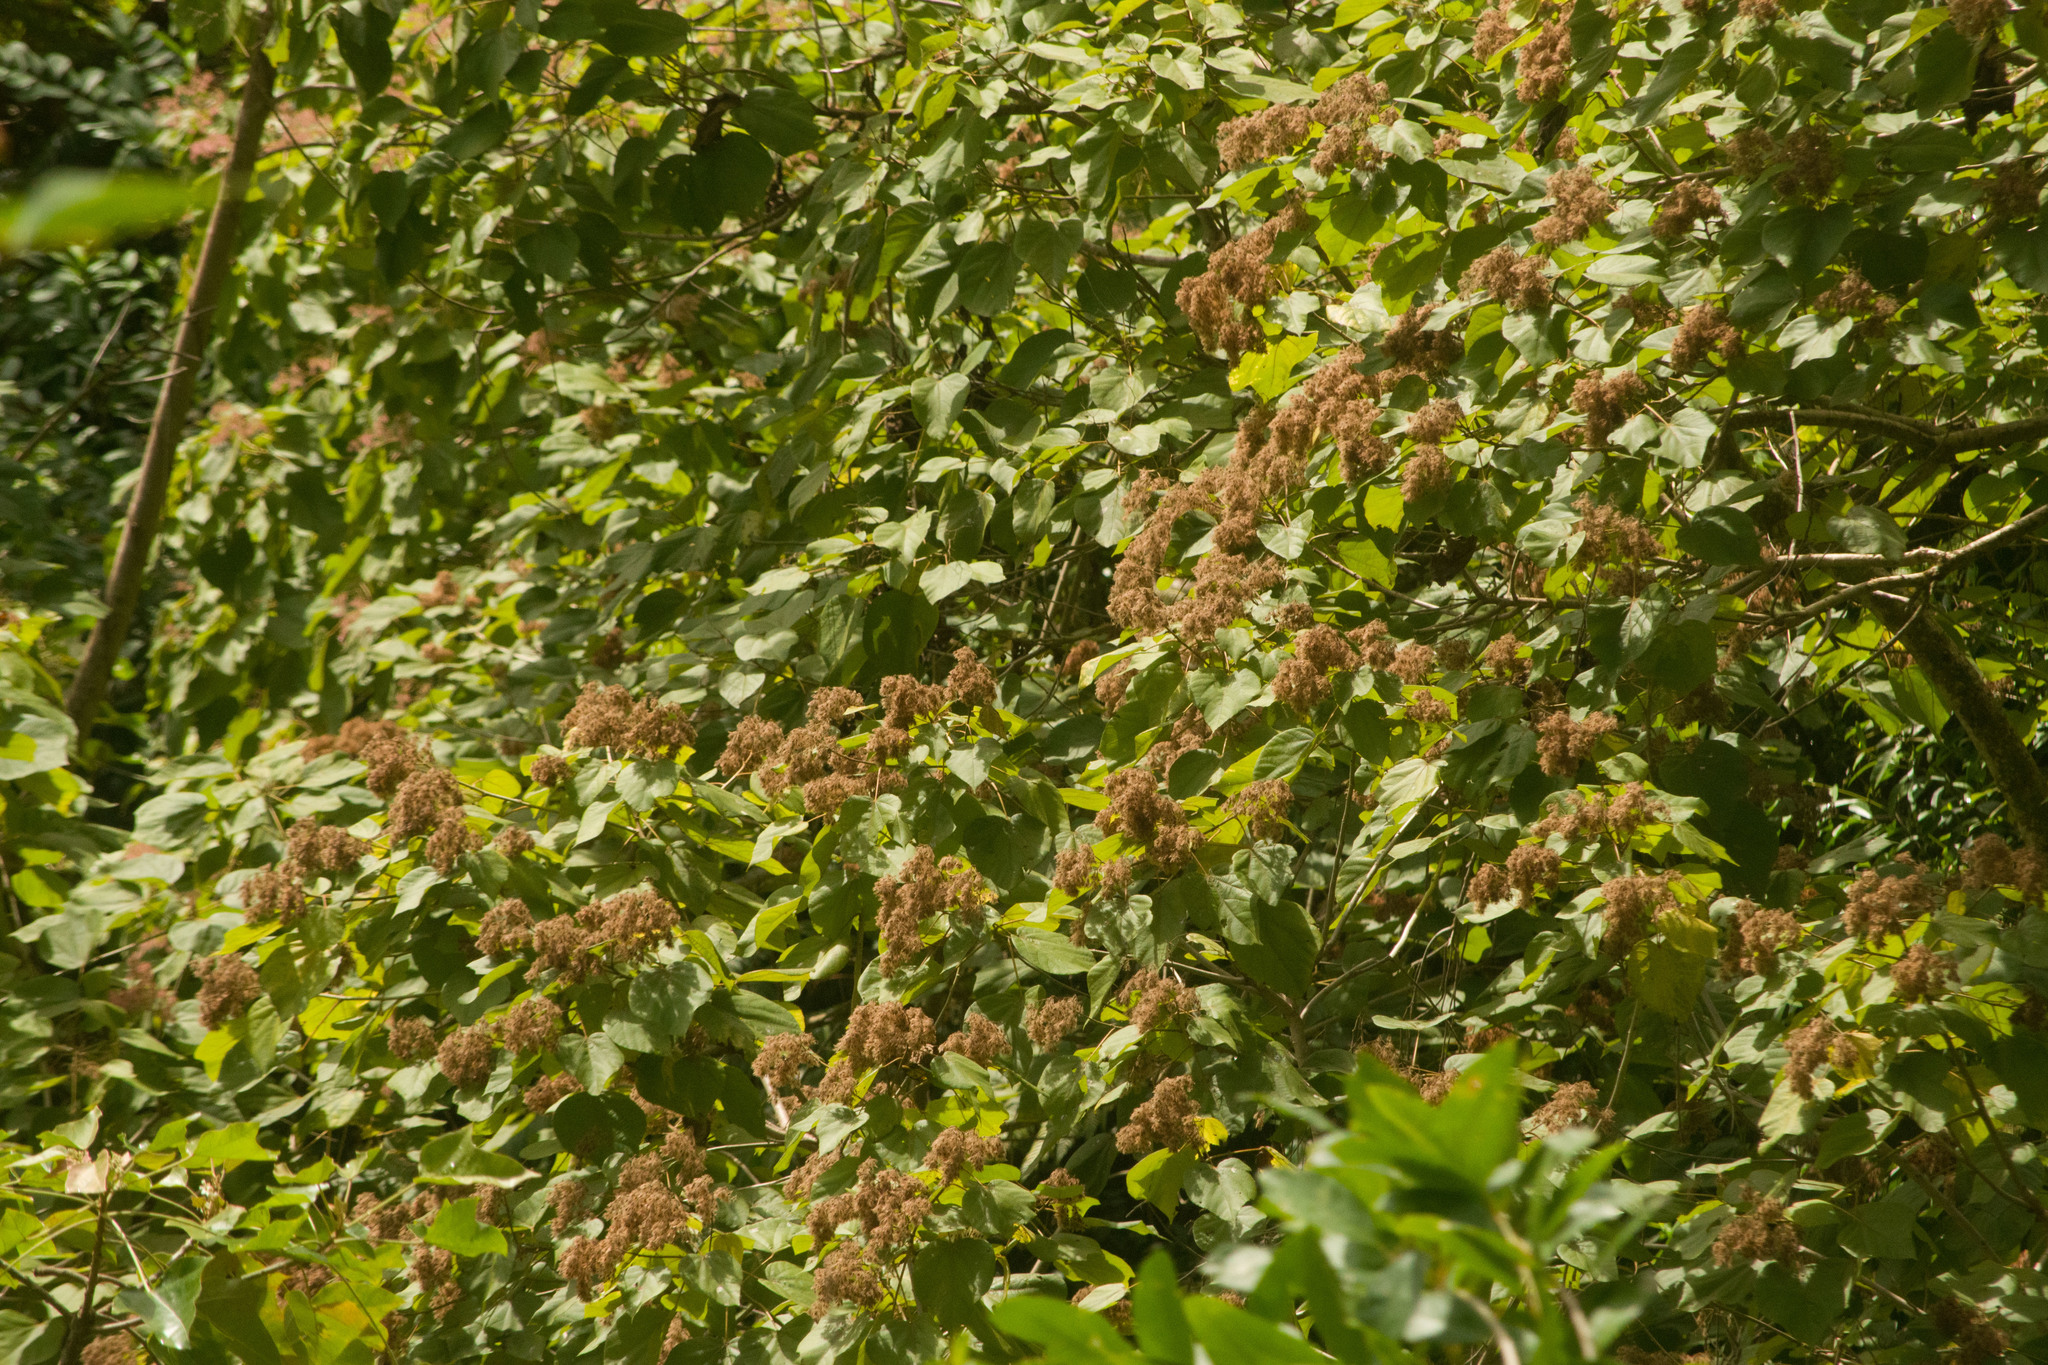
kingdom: Plantae
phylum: Tracheophyta
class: Magnoliopsida
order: Malvales
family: Malvaceae
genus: Heliocarpus
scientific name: Heliocarpus americanus
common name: White moho
